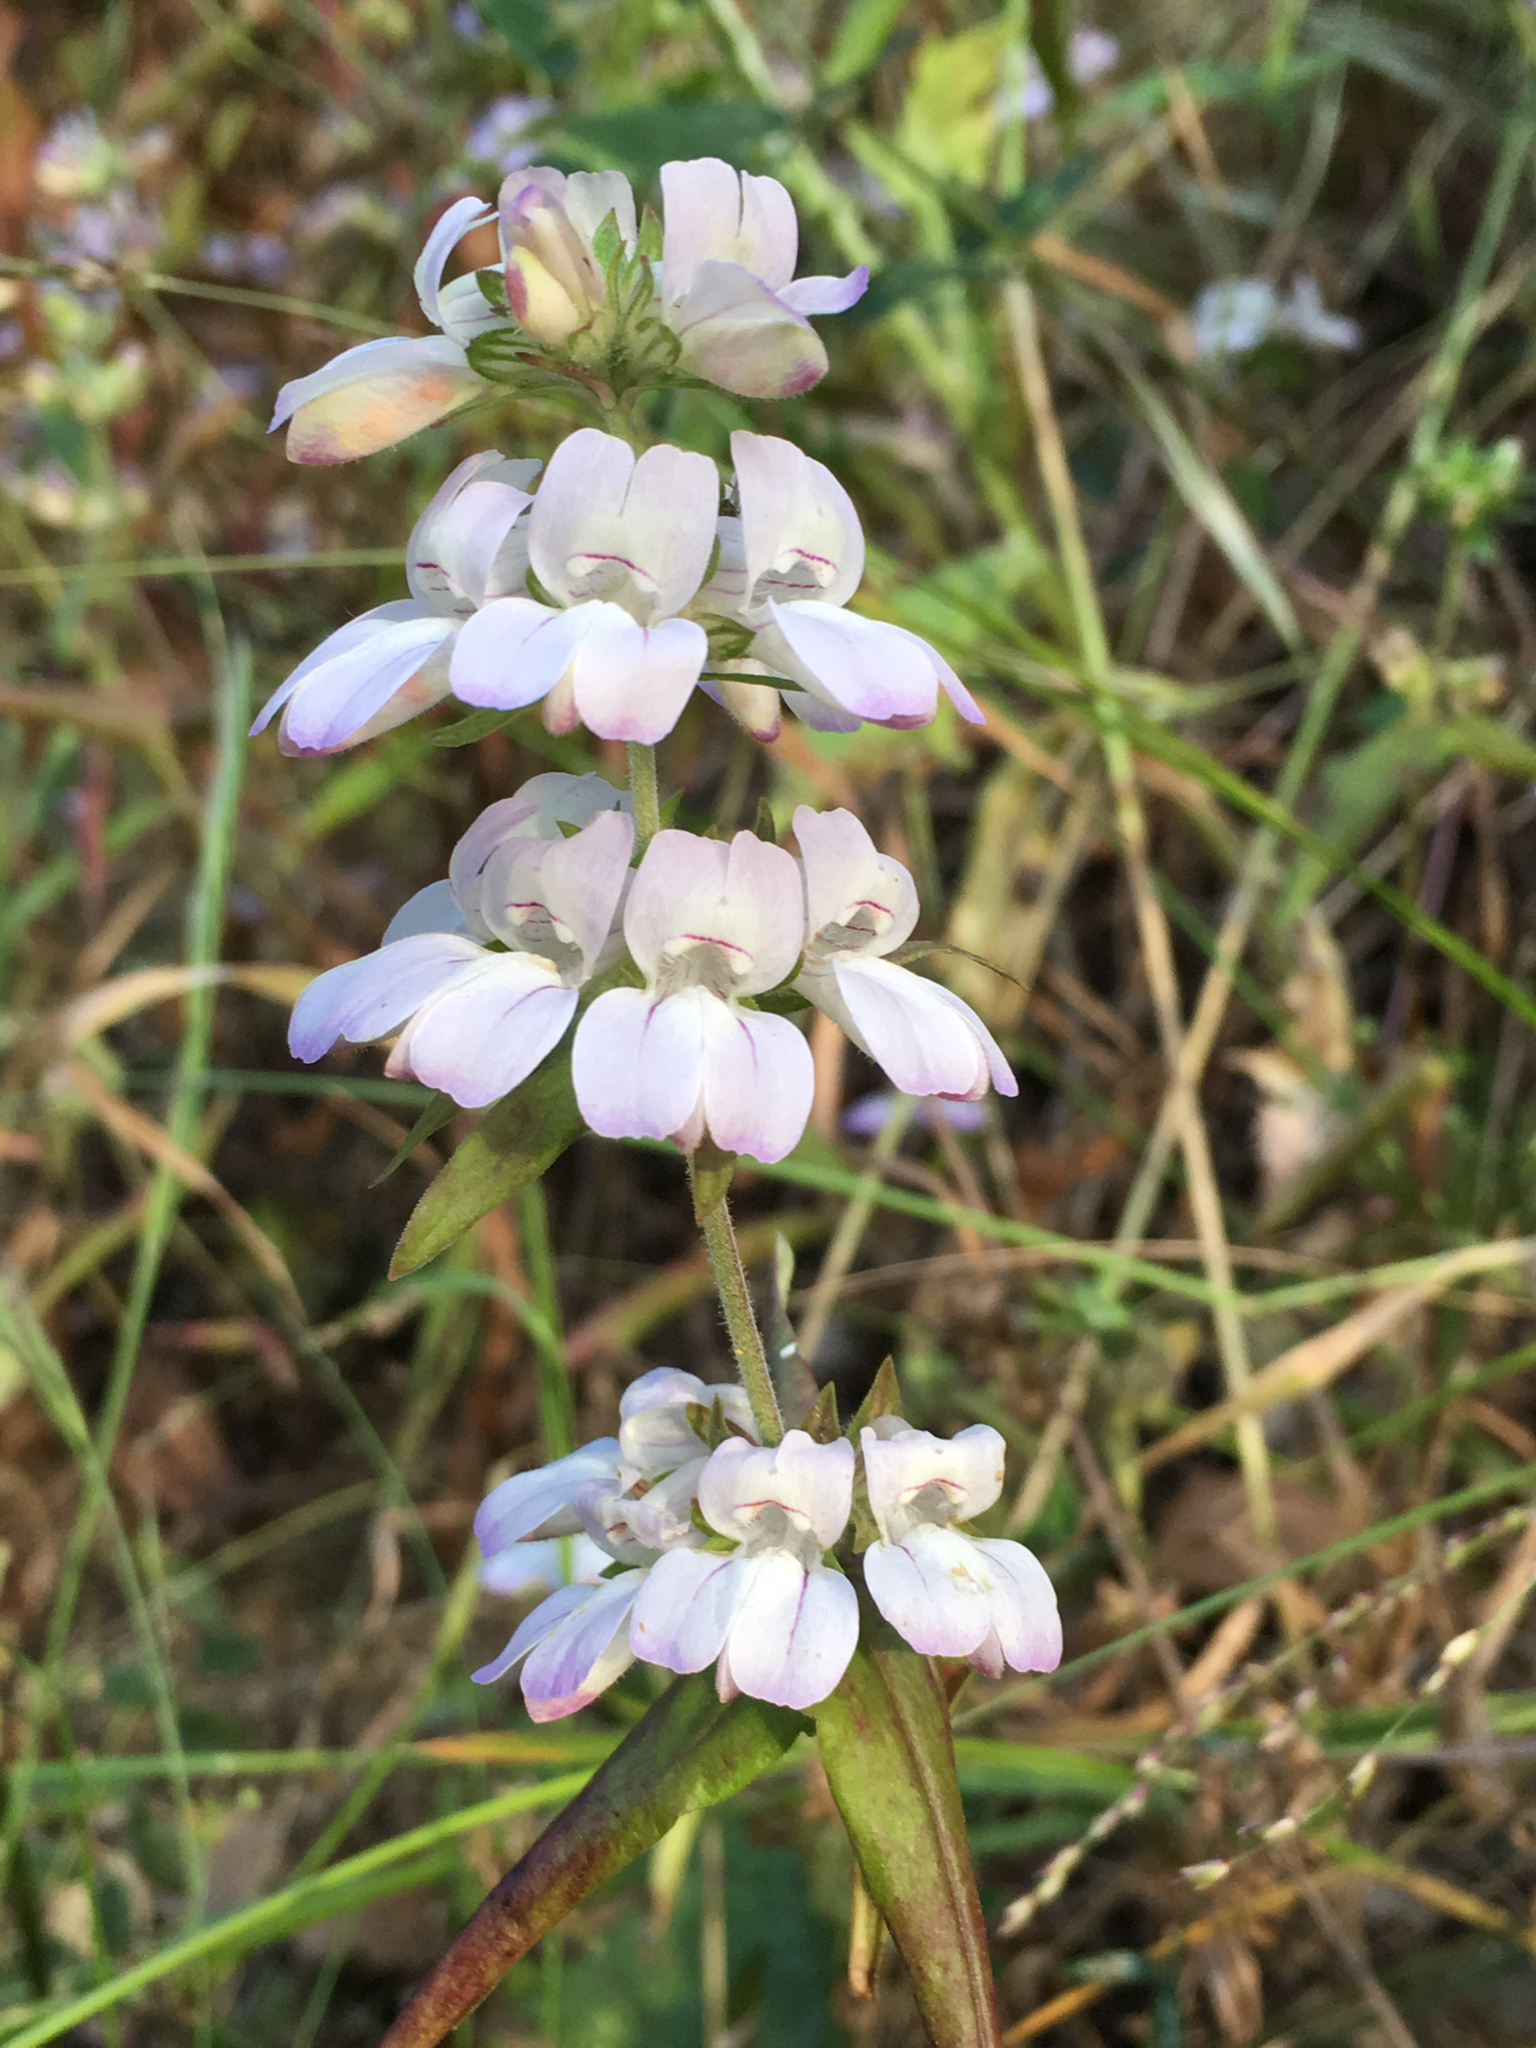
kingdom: Plantae
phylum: Tracheophyta
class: Magnoliopsida
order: Lamiales
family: Plantaginaceae
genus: Collinsia
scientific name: Collinsia heterophylla
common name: Chinese-houses
